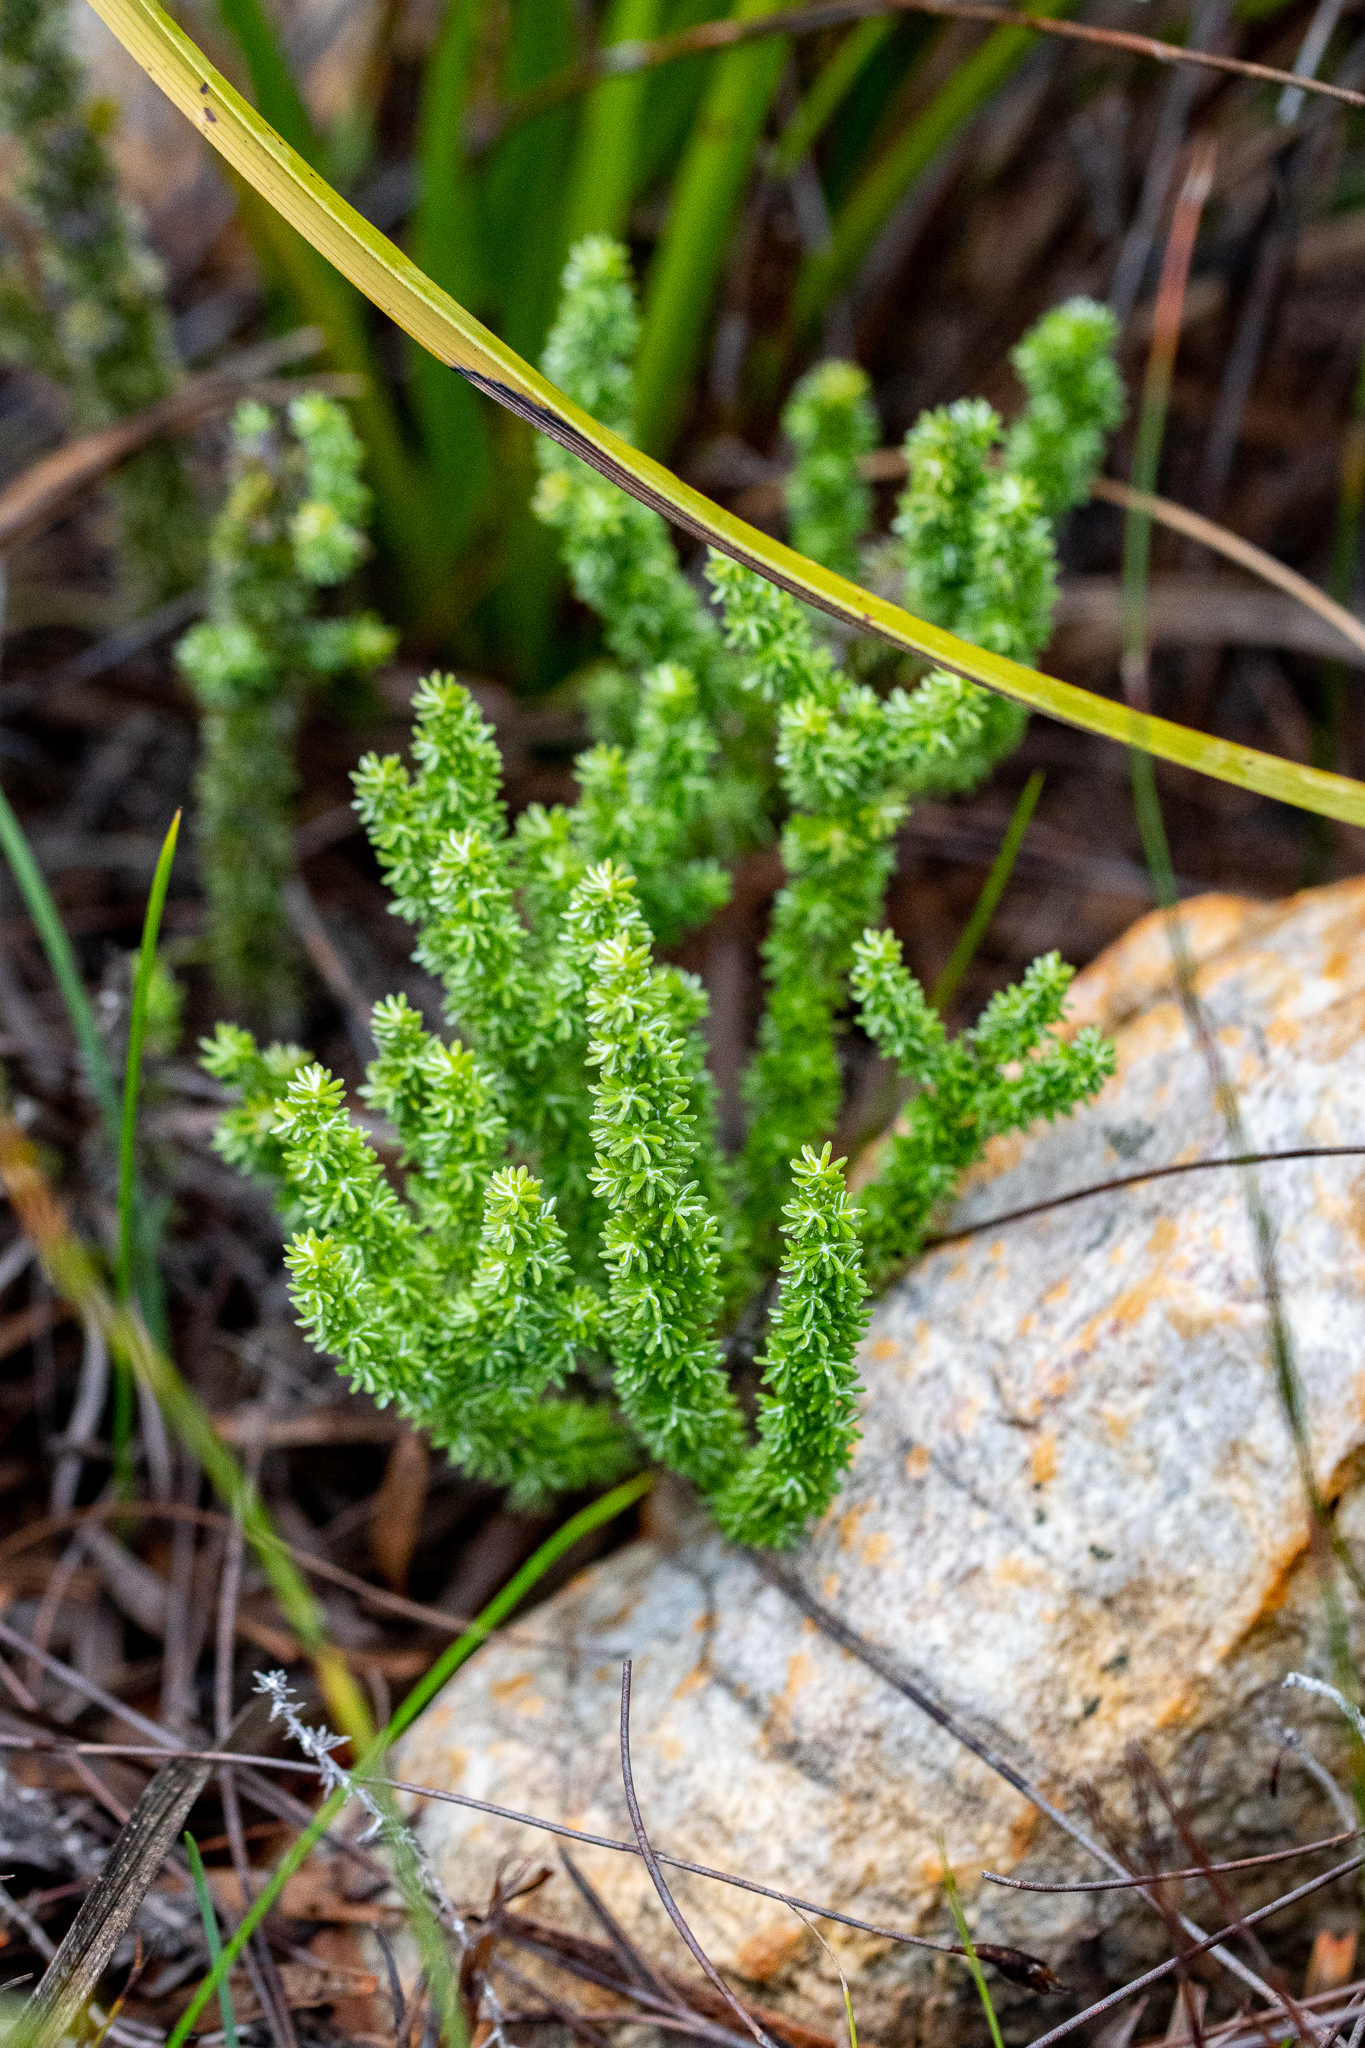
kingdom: Plantae
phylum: Tracheophyta
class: Magnoliopsida
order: Asterales
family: Asteraceae
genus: Lachnospermum
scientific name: Lachnospermum umbellatum
